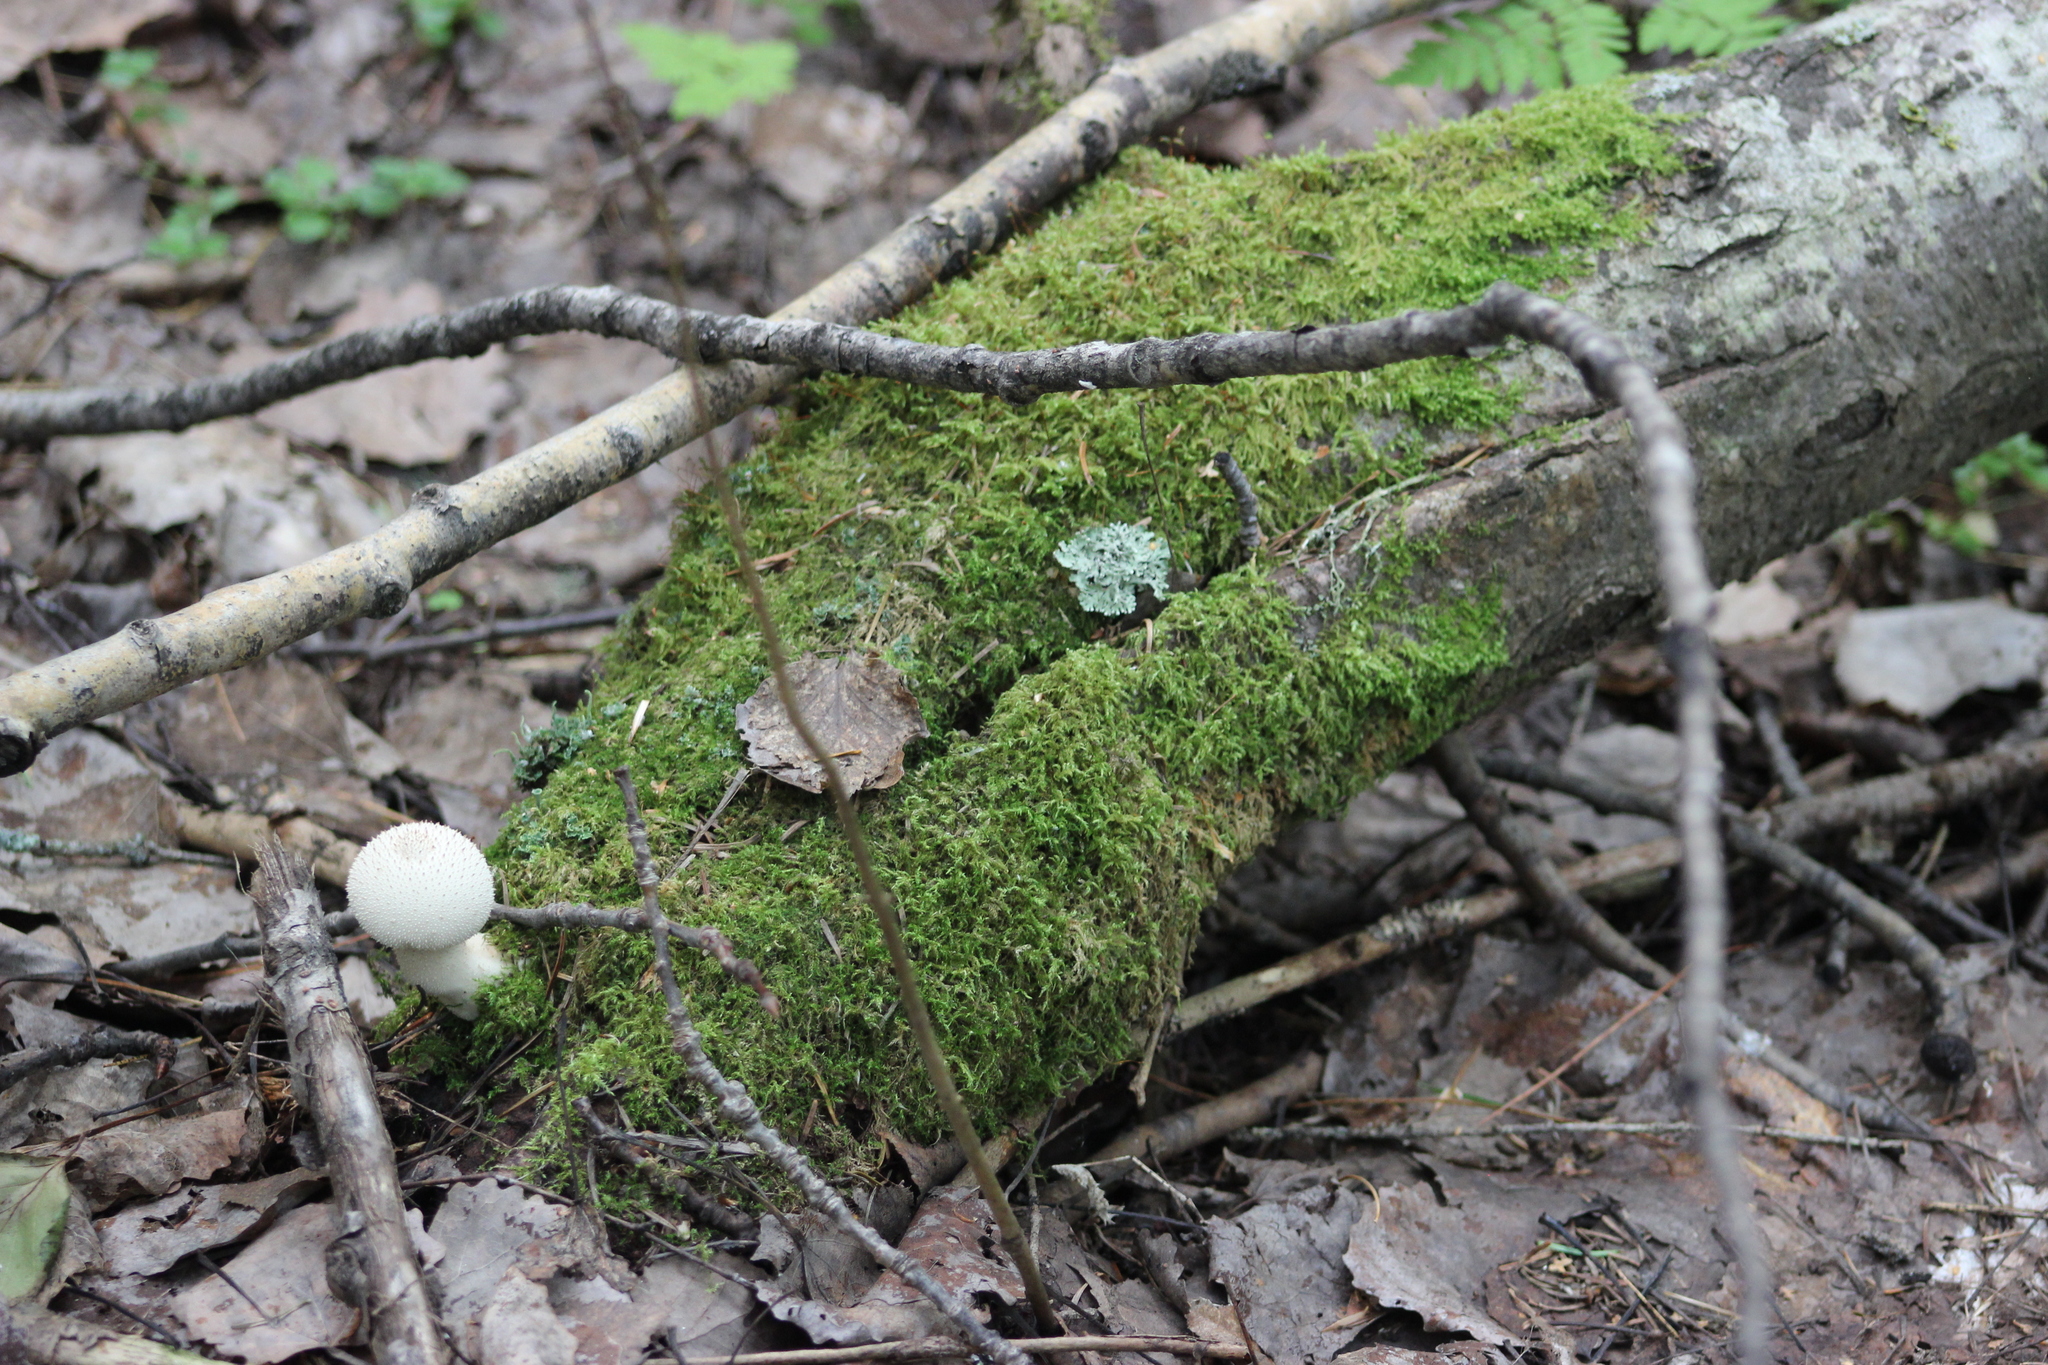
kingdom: Fungi
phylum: Basidiomycota
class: Agaricomycetes
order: Agaricales
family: Lycoperdaceae
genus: Lycoperdon
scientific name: Lycoperdon perlatum
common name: Common puffball
